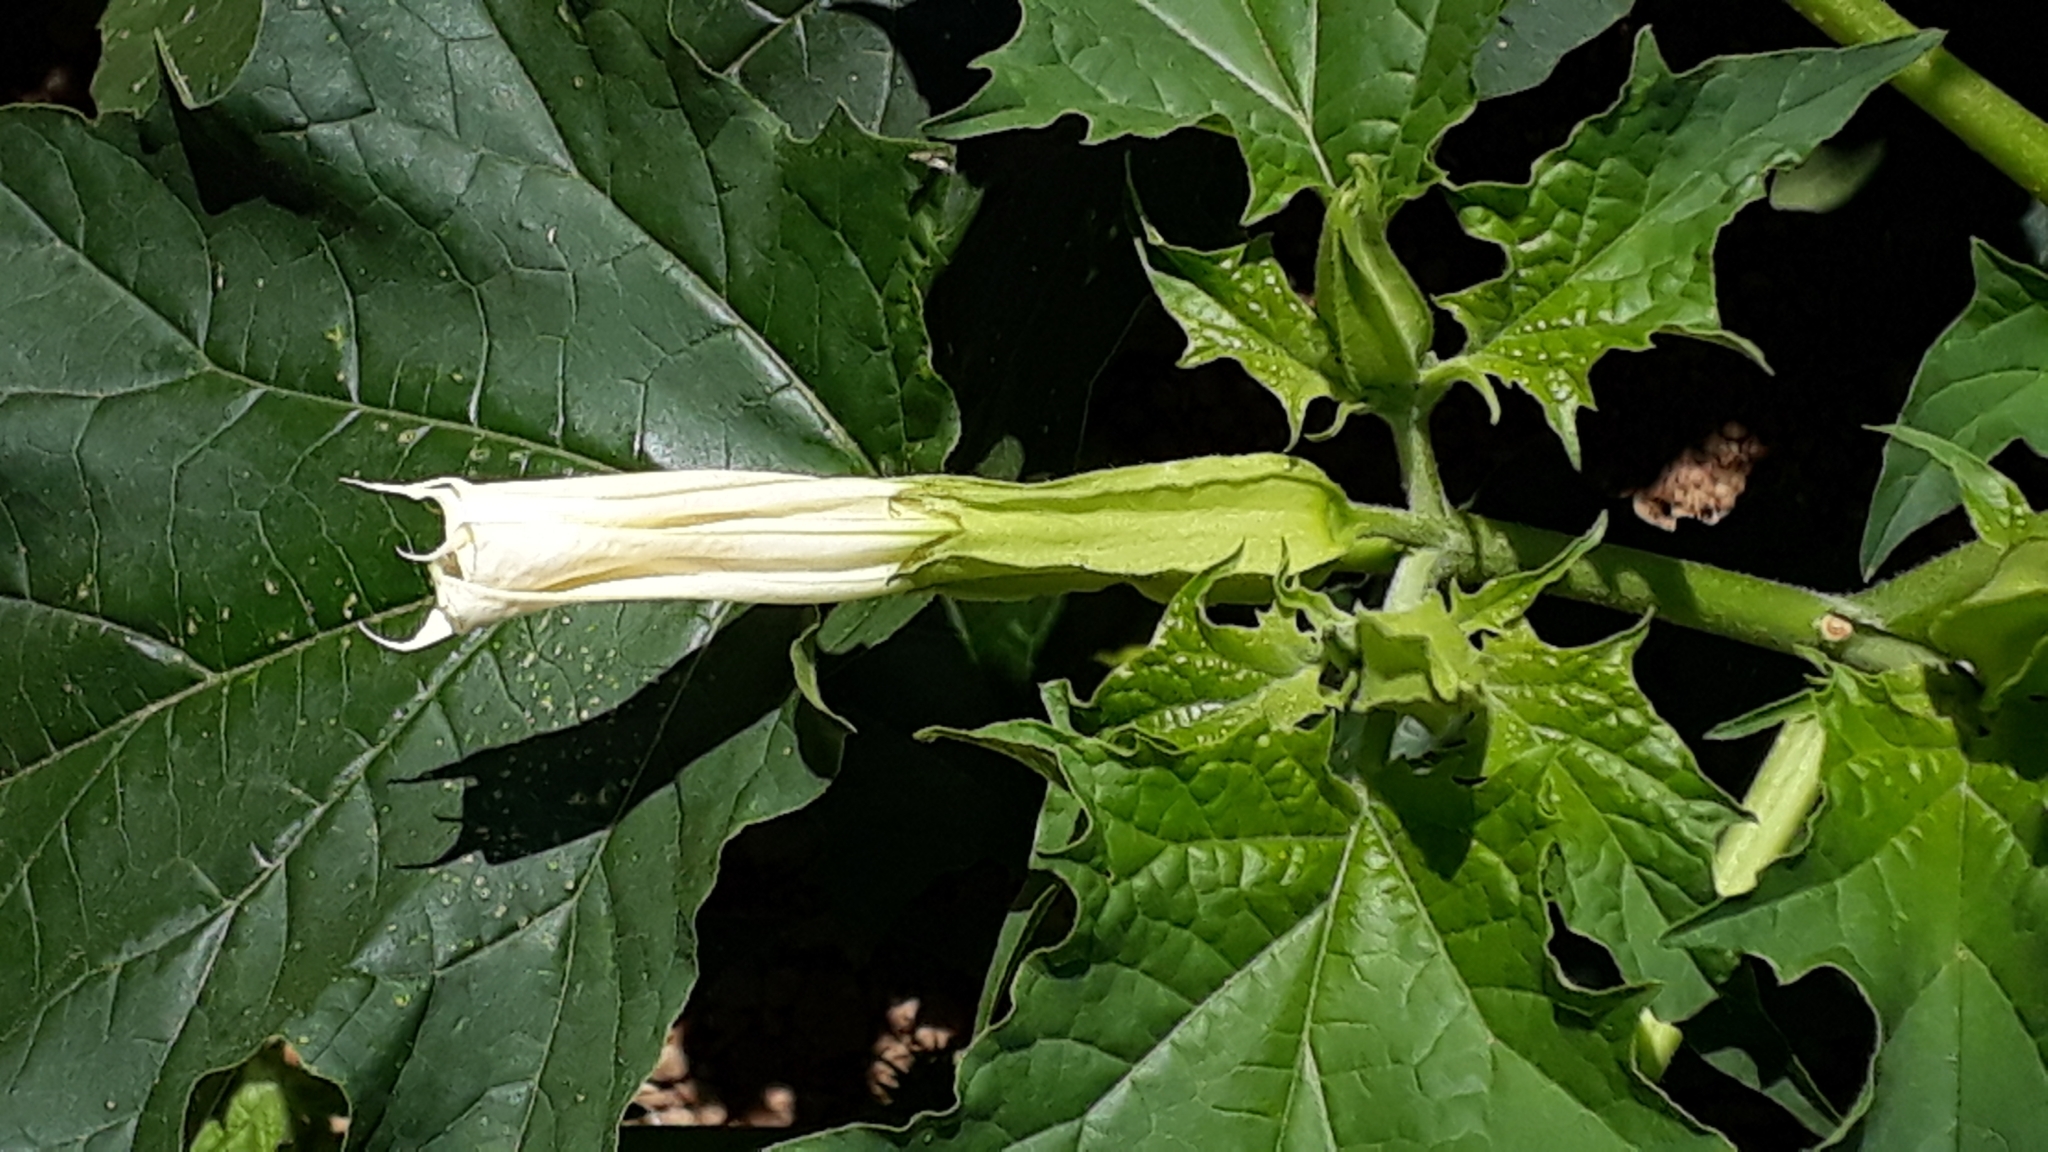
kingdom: Plantae
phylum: Tracheophyta
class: Magnoliopsida
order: Solanales
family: Solanaceae
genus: Datura
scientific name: Datura stramonium
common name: Thorn-apple
